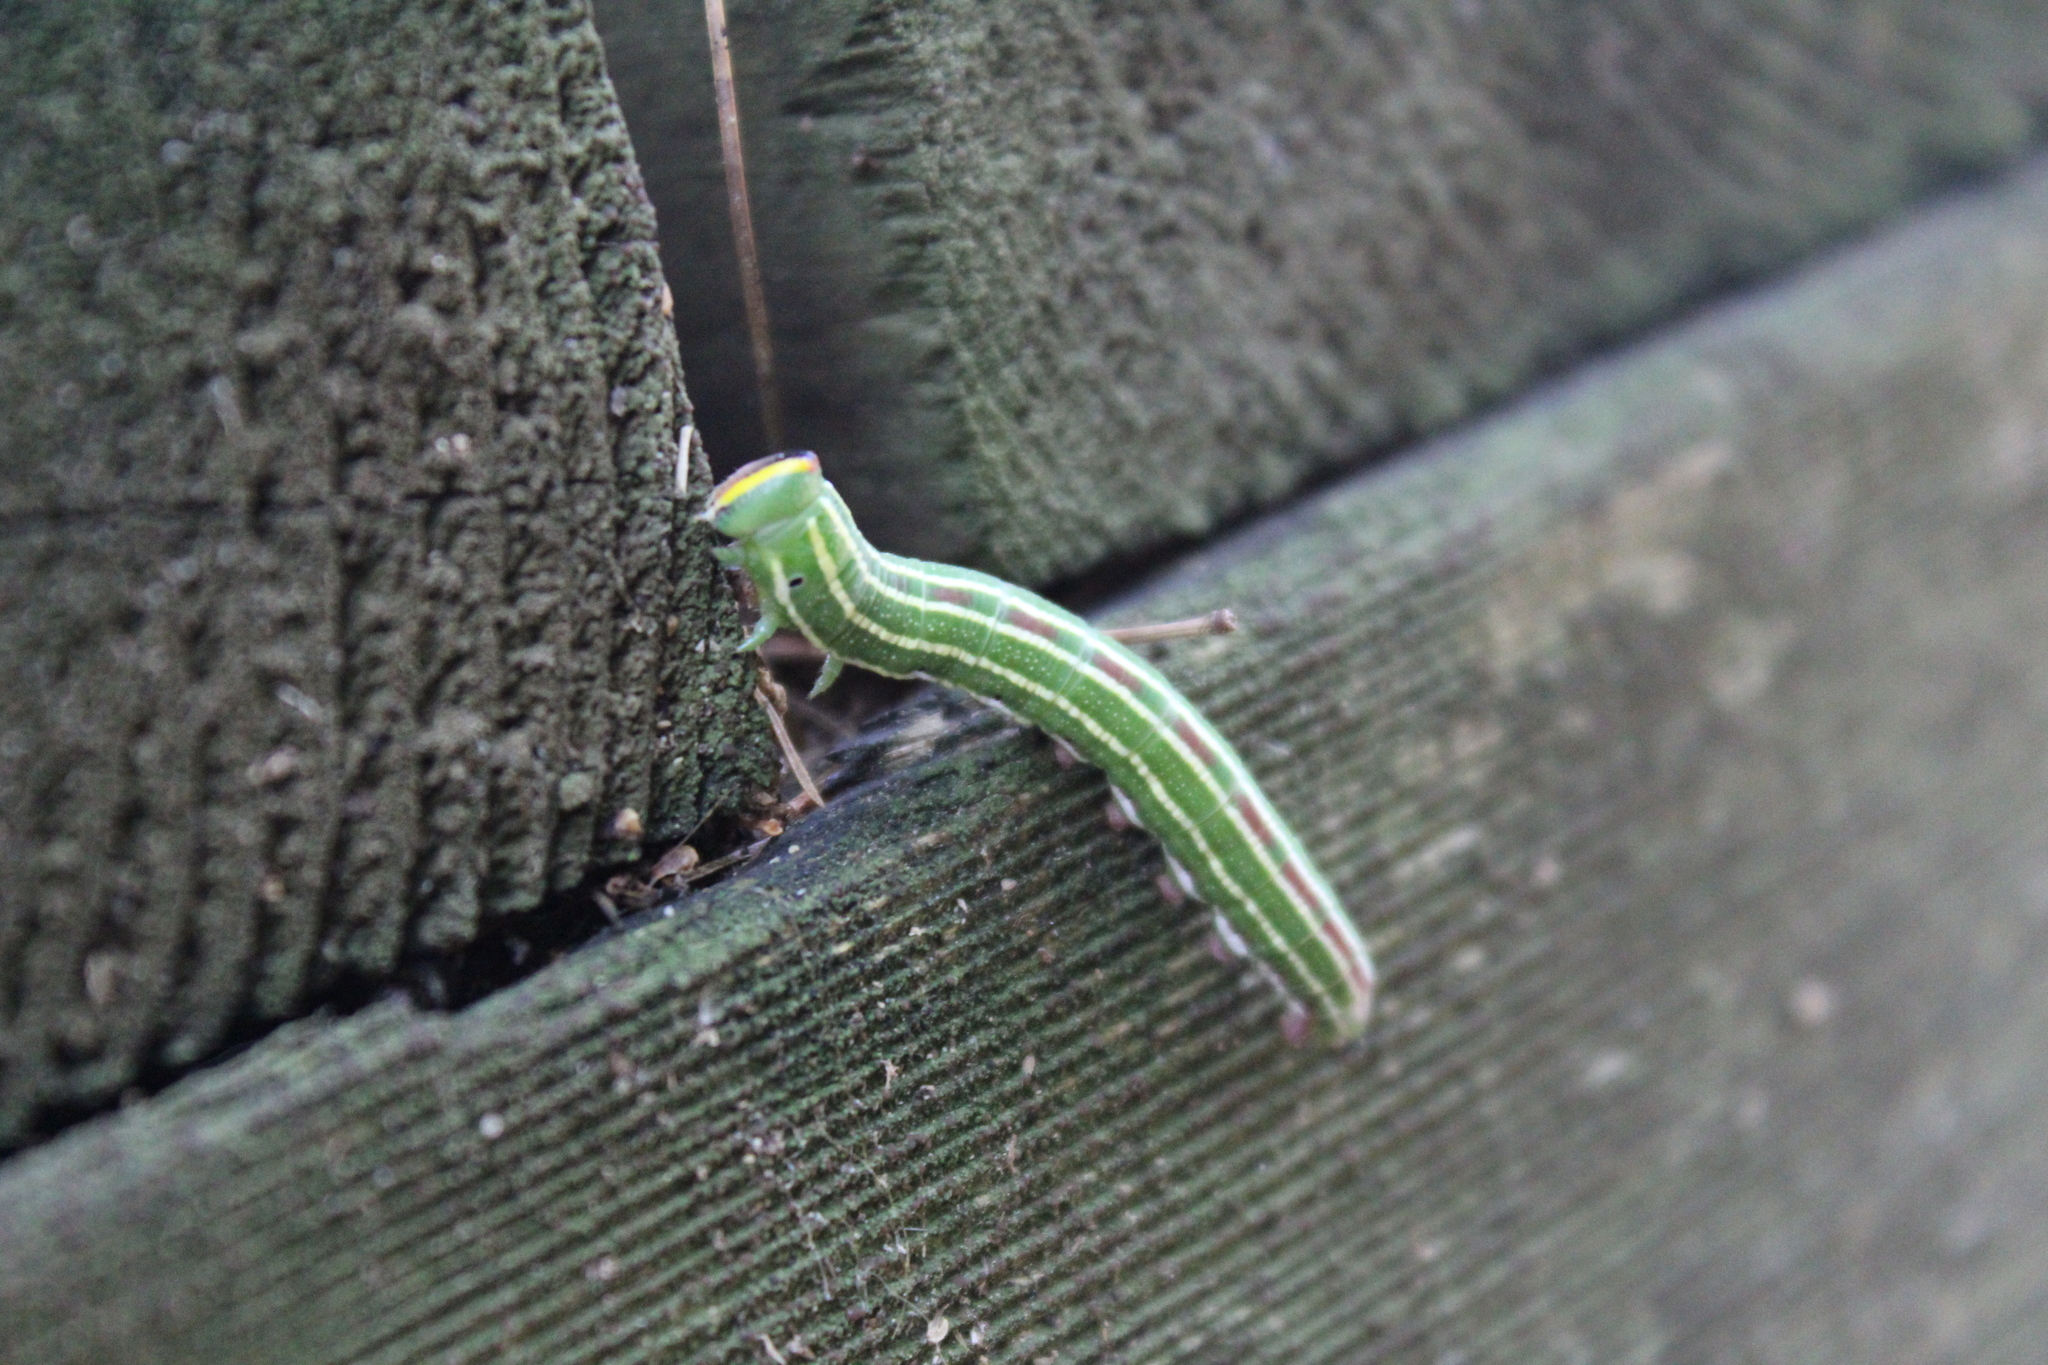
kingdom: Animalia
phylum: Arthropoda
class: Insecta
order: Lepidoptera
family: Sphingidae
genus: Lapara
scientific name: Lapara bombycoides
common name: Northern pine sphinx
